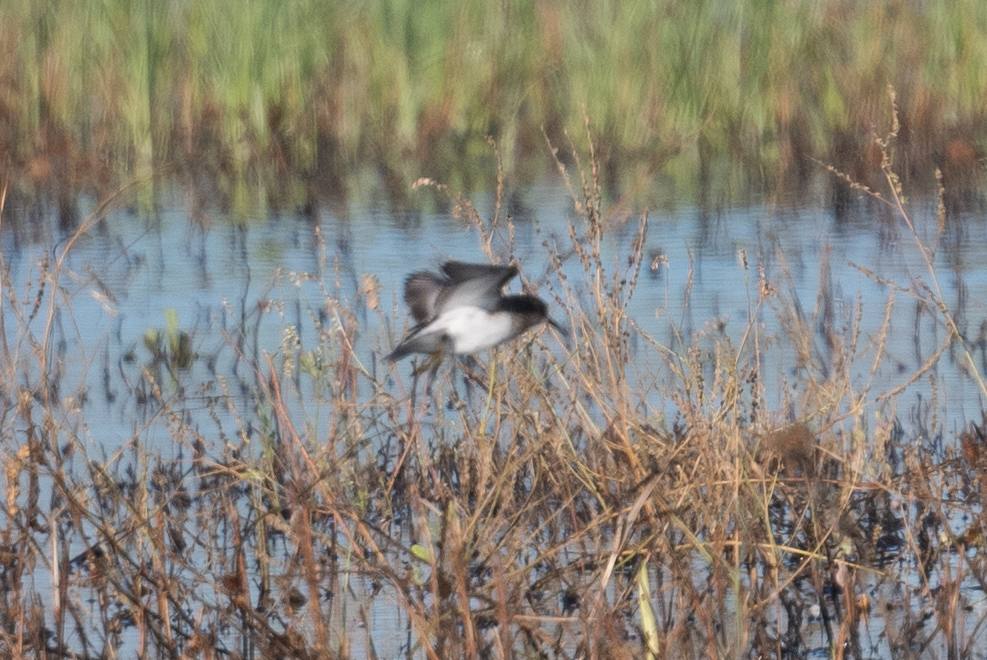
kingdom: Animalia
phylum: Chordata
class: Aves
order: Charadriiformes
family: Scolopacidae
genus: Calidris
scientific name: Calidris minutilla
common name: Least sandpiper
